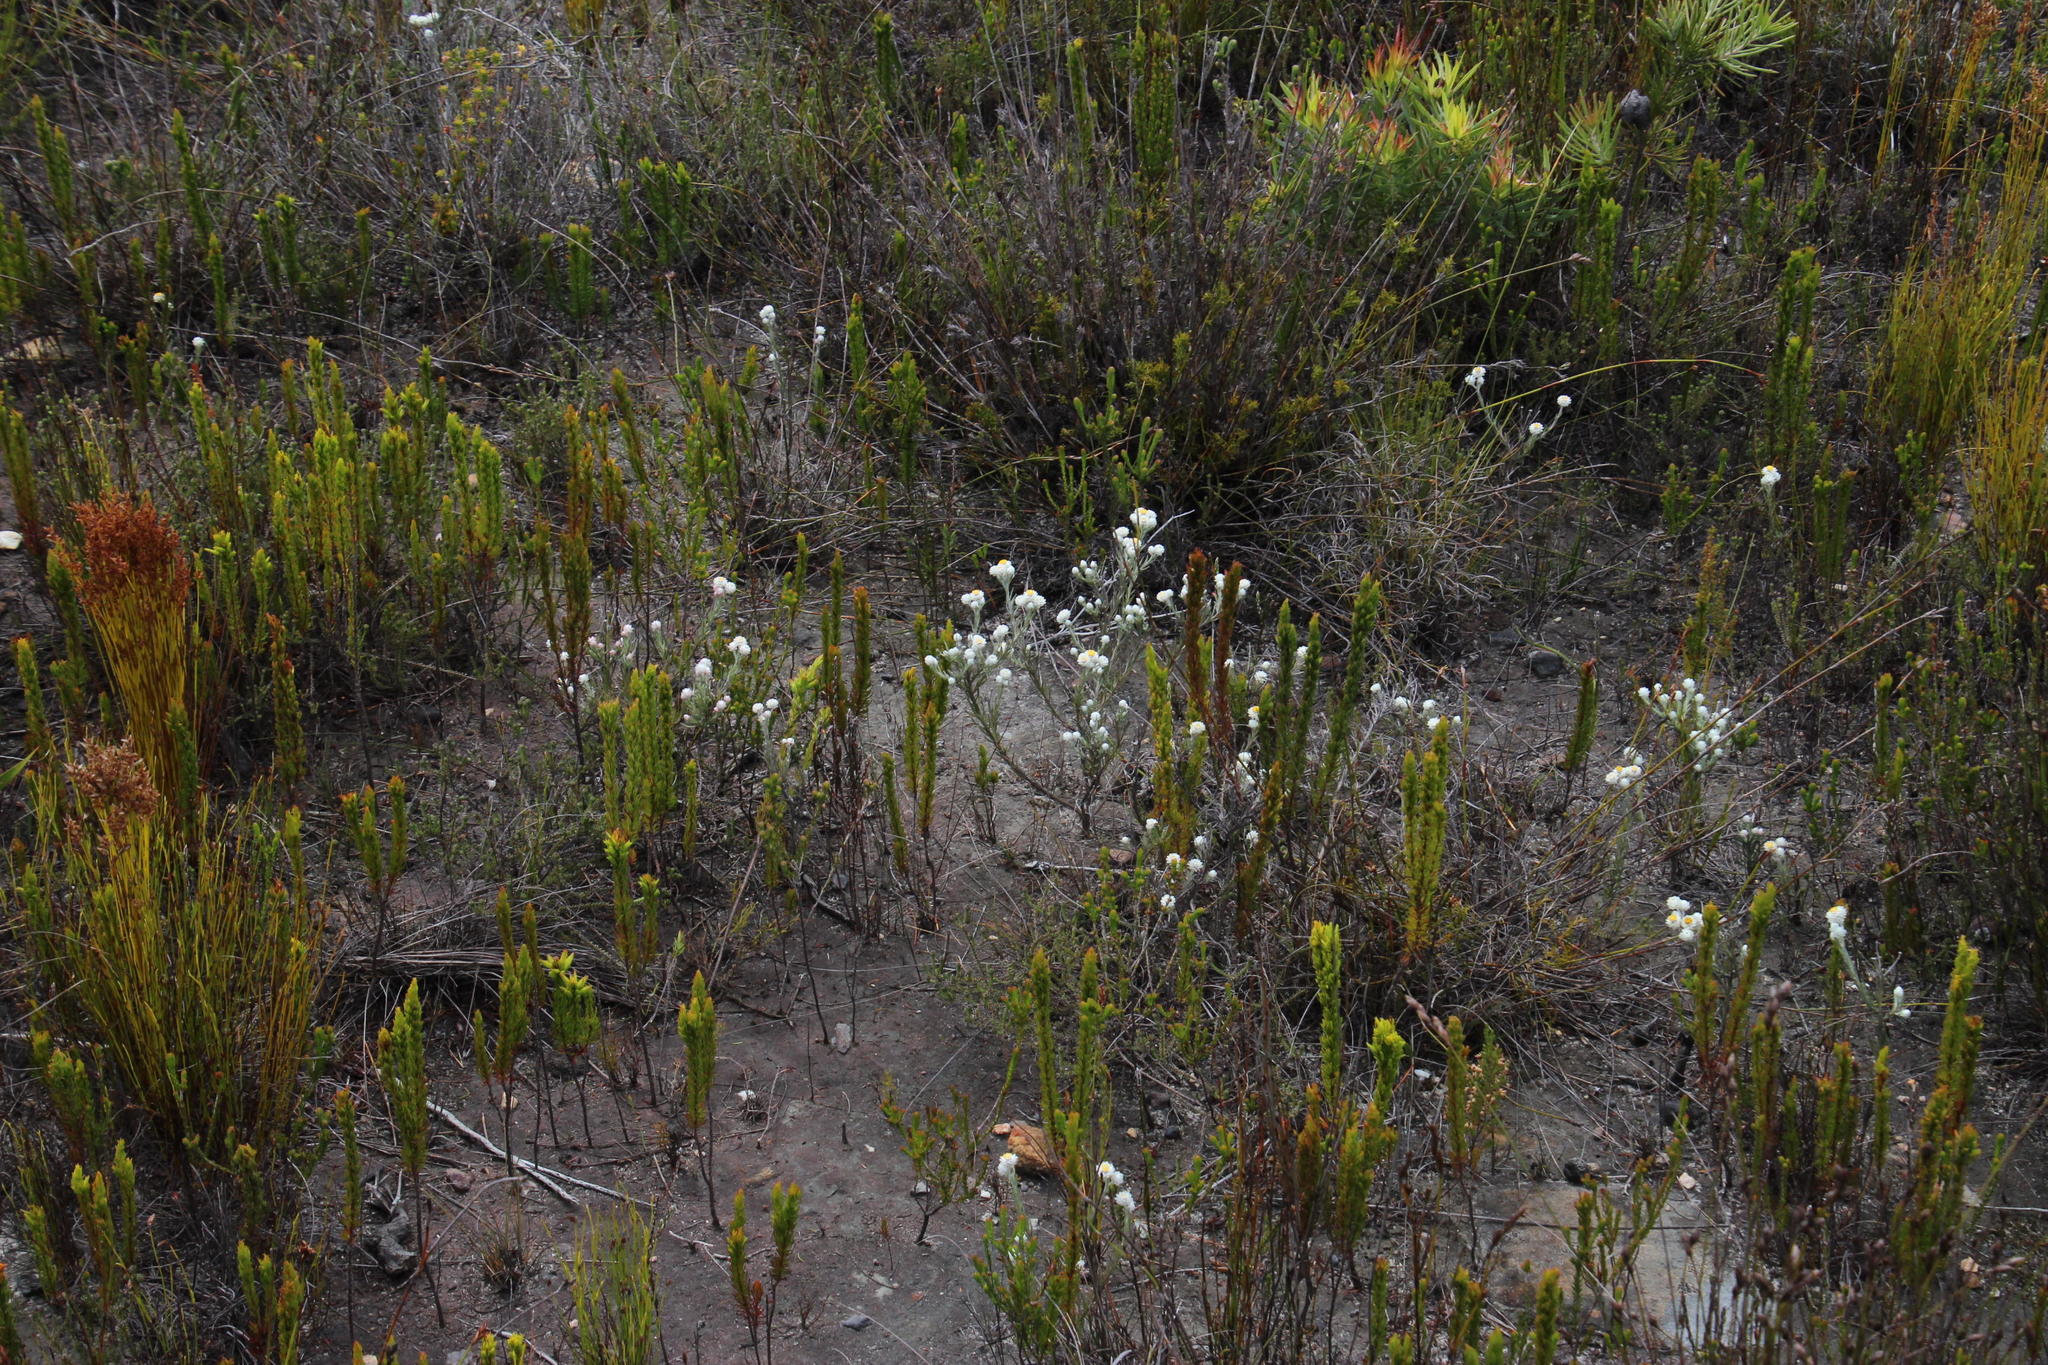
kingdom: Plantae
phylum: Tracheophyta
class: Magnoliopsida
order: Asterales
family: Asteraceae
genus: Achyranthemum
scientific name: Achyranthemum paniculatum
